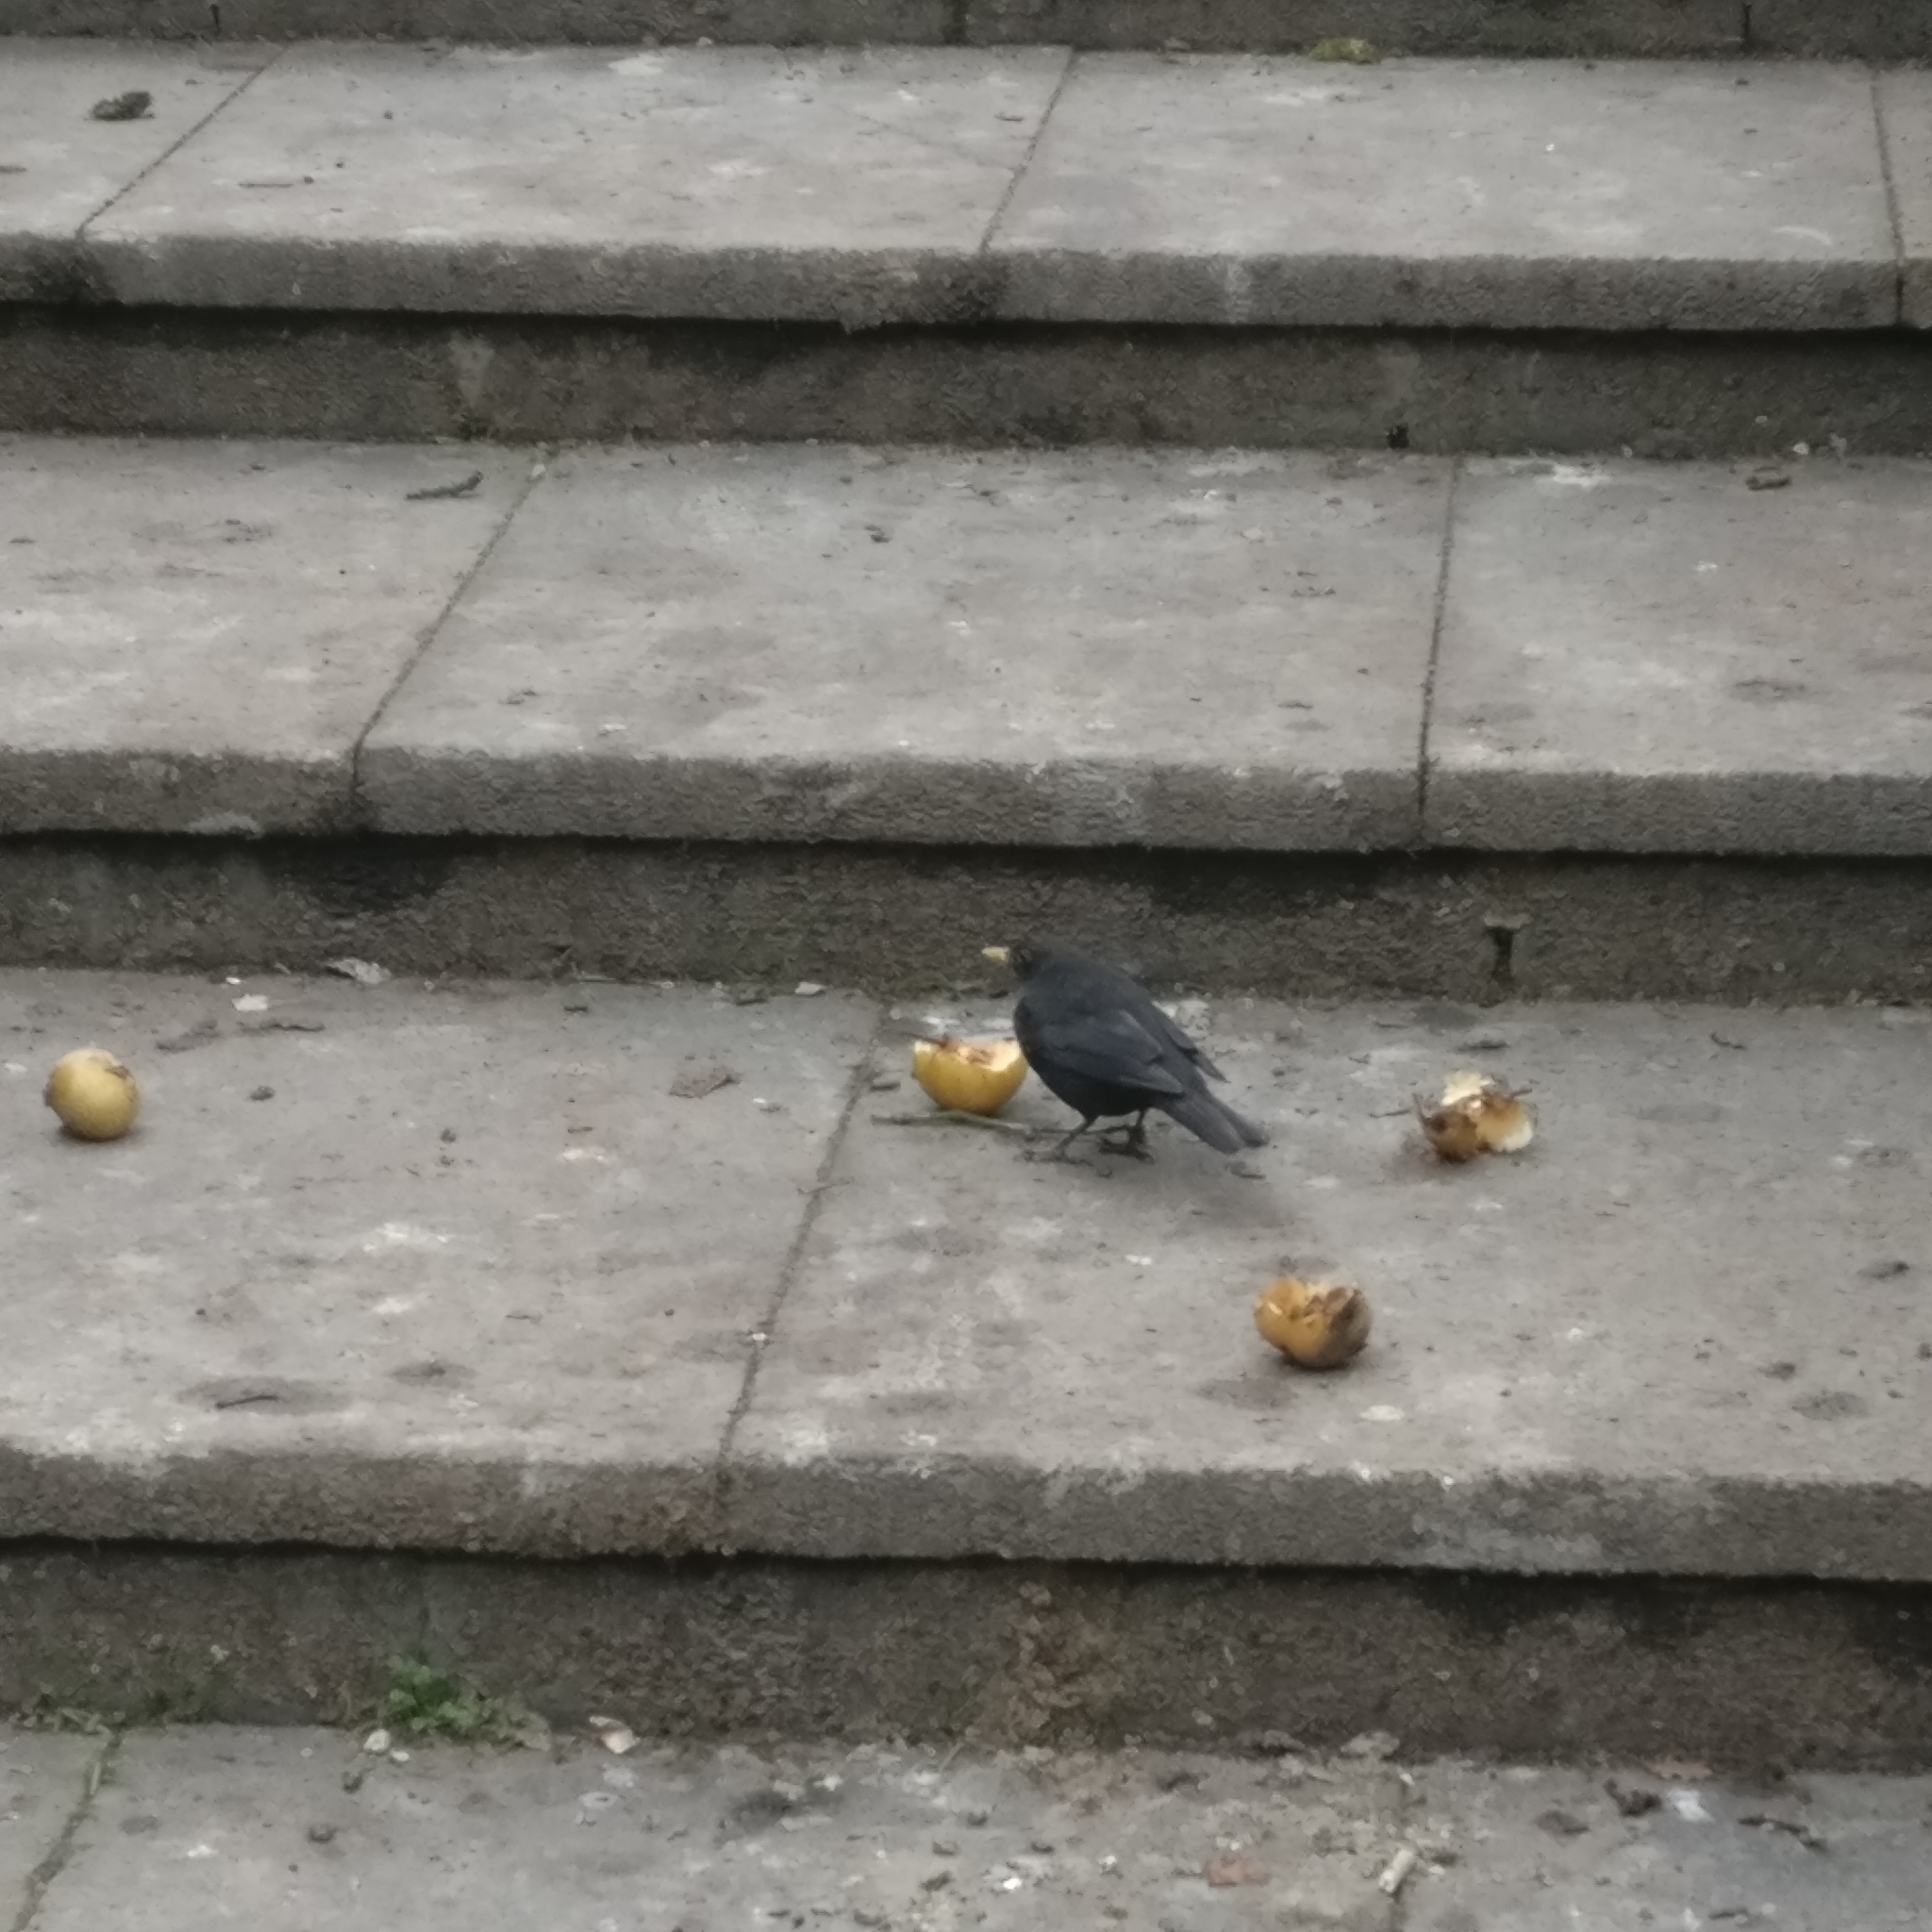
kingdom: Animalia
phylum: Chordata
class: Aves
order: Passeriformes
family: Turdidae
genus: Turdus
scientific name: Turdus merula
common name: Common blackbird
